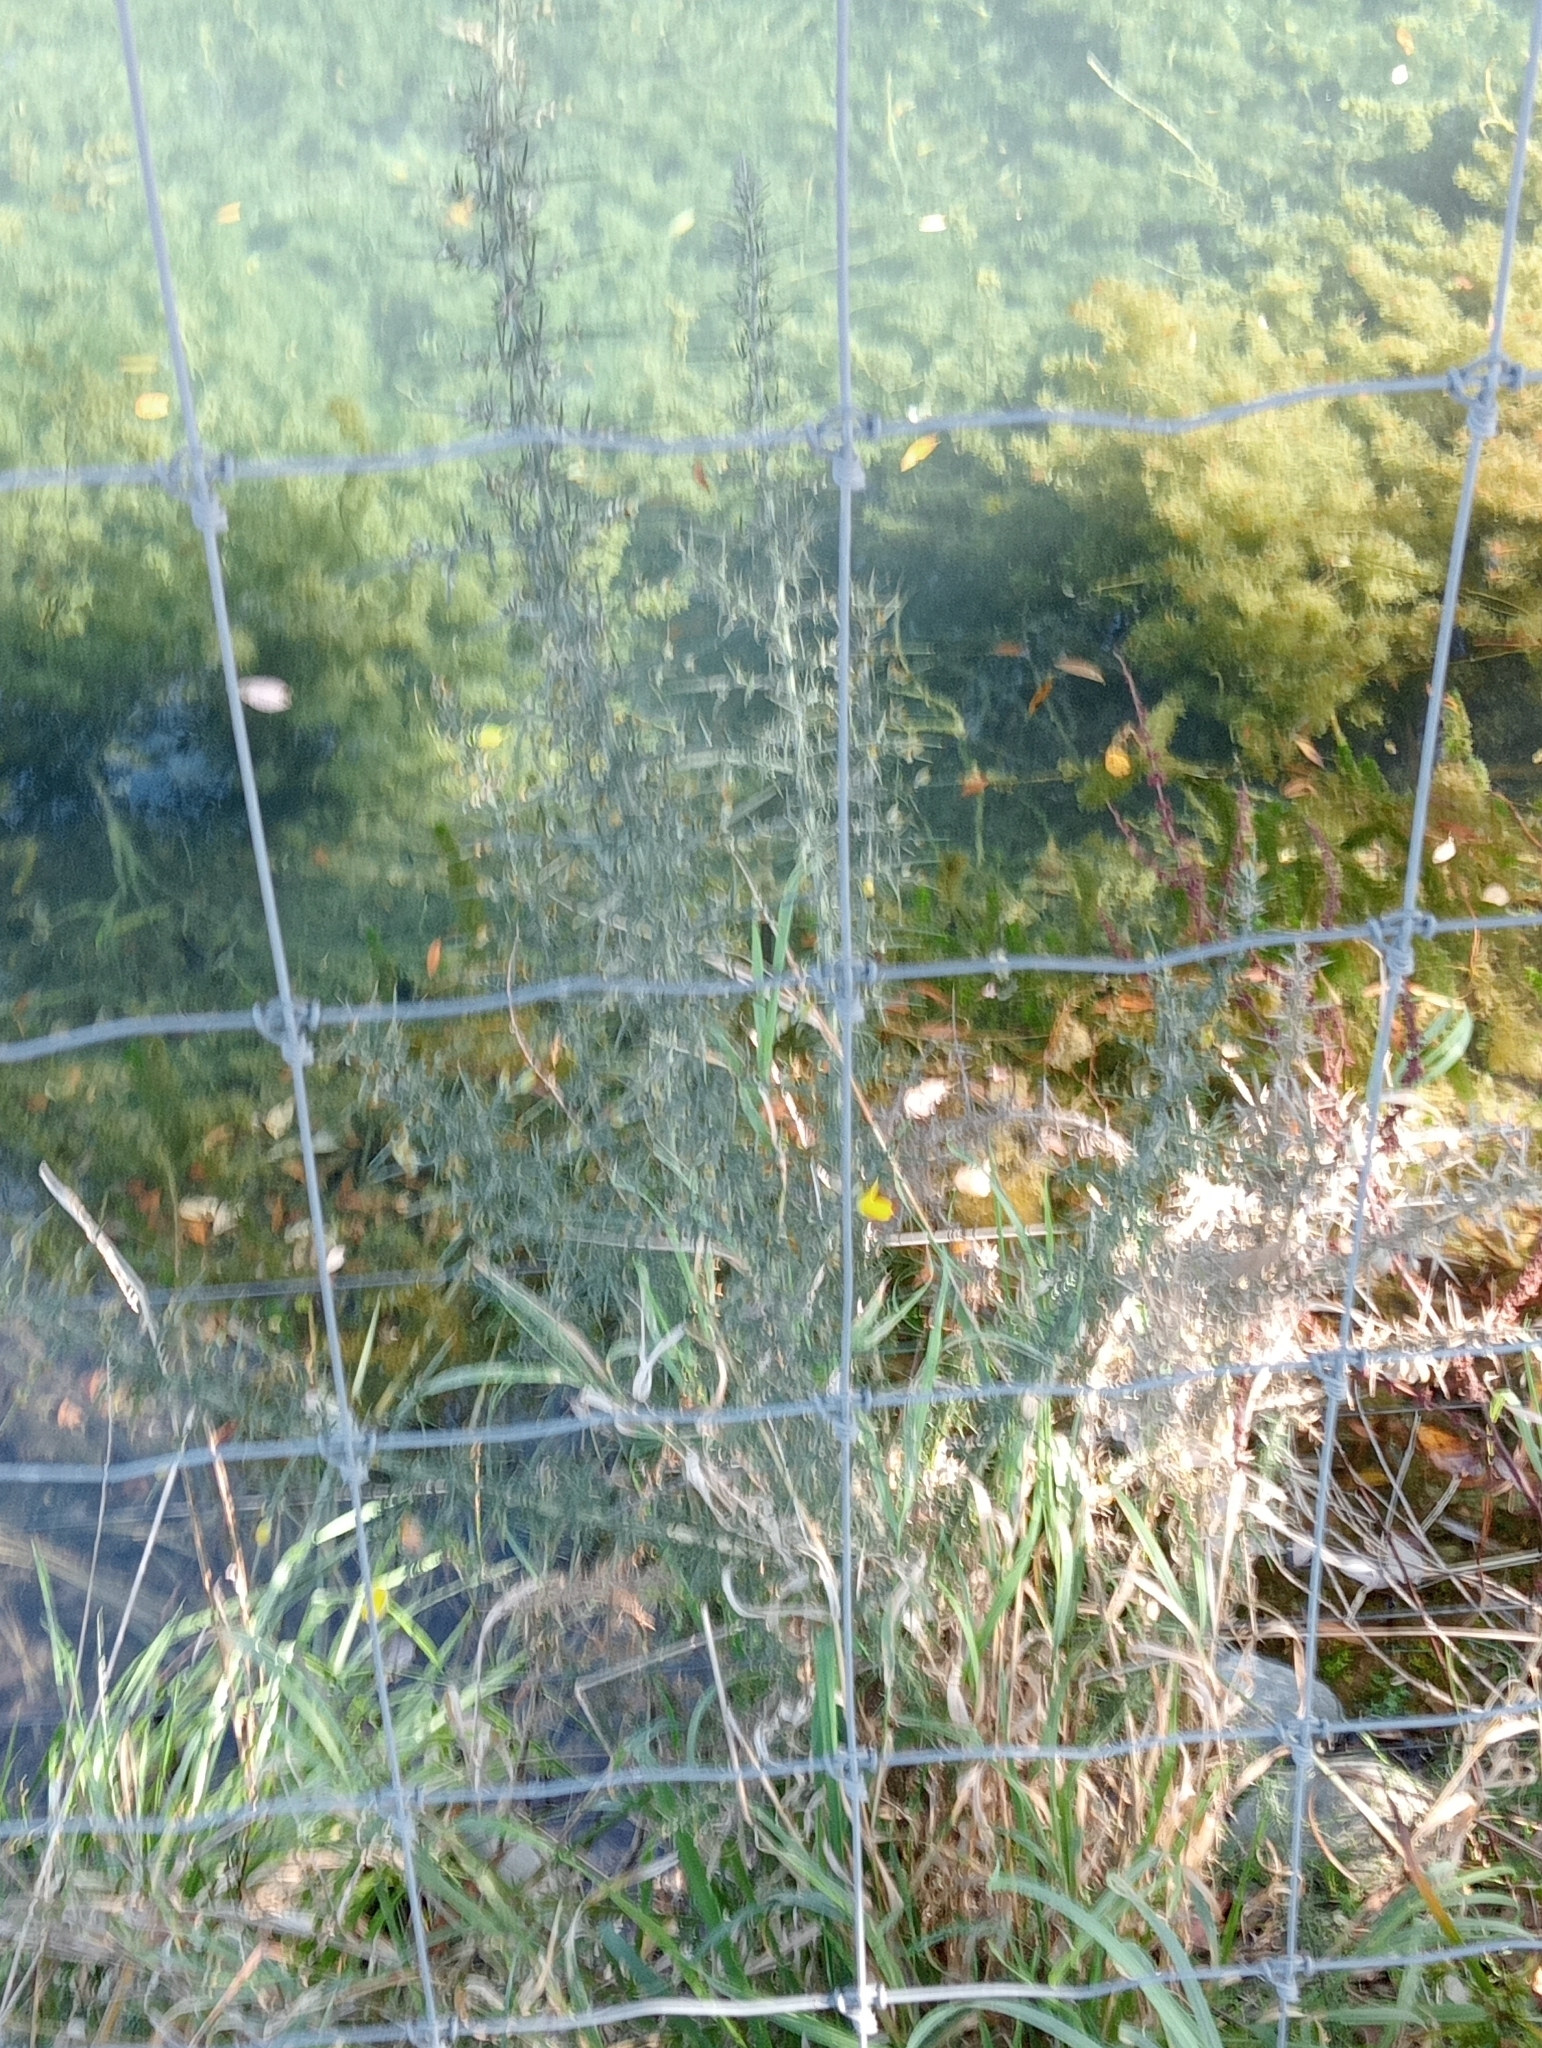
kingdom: Plantae
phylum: Tracheophyta
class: Magnoliopsida
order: Fabales
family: Fabaceae
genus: Ulex
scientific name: Ulex europaeus
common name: Common gorse
